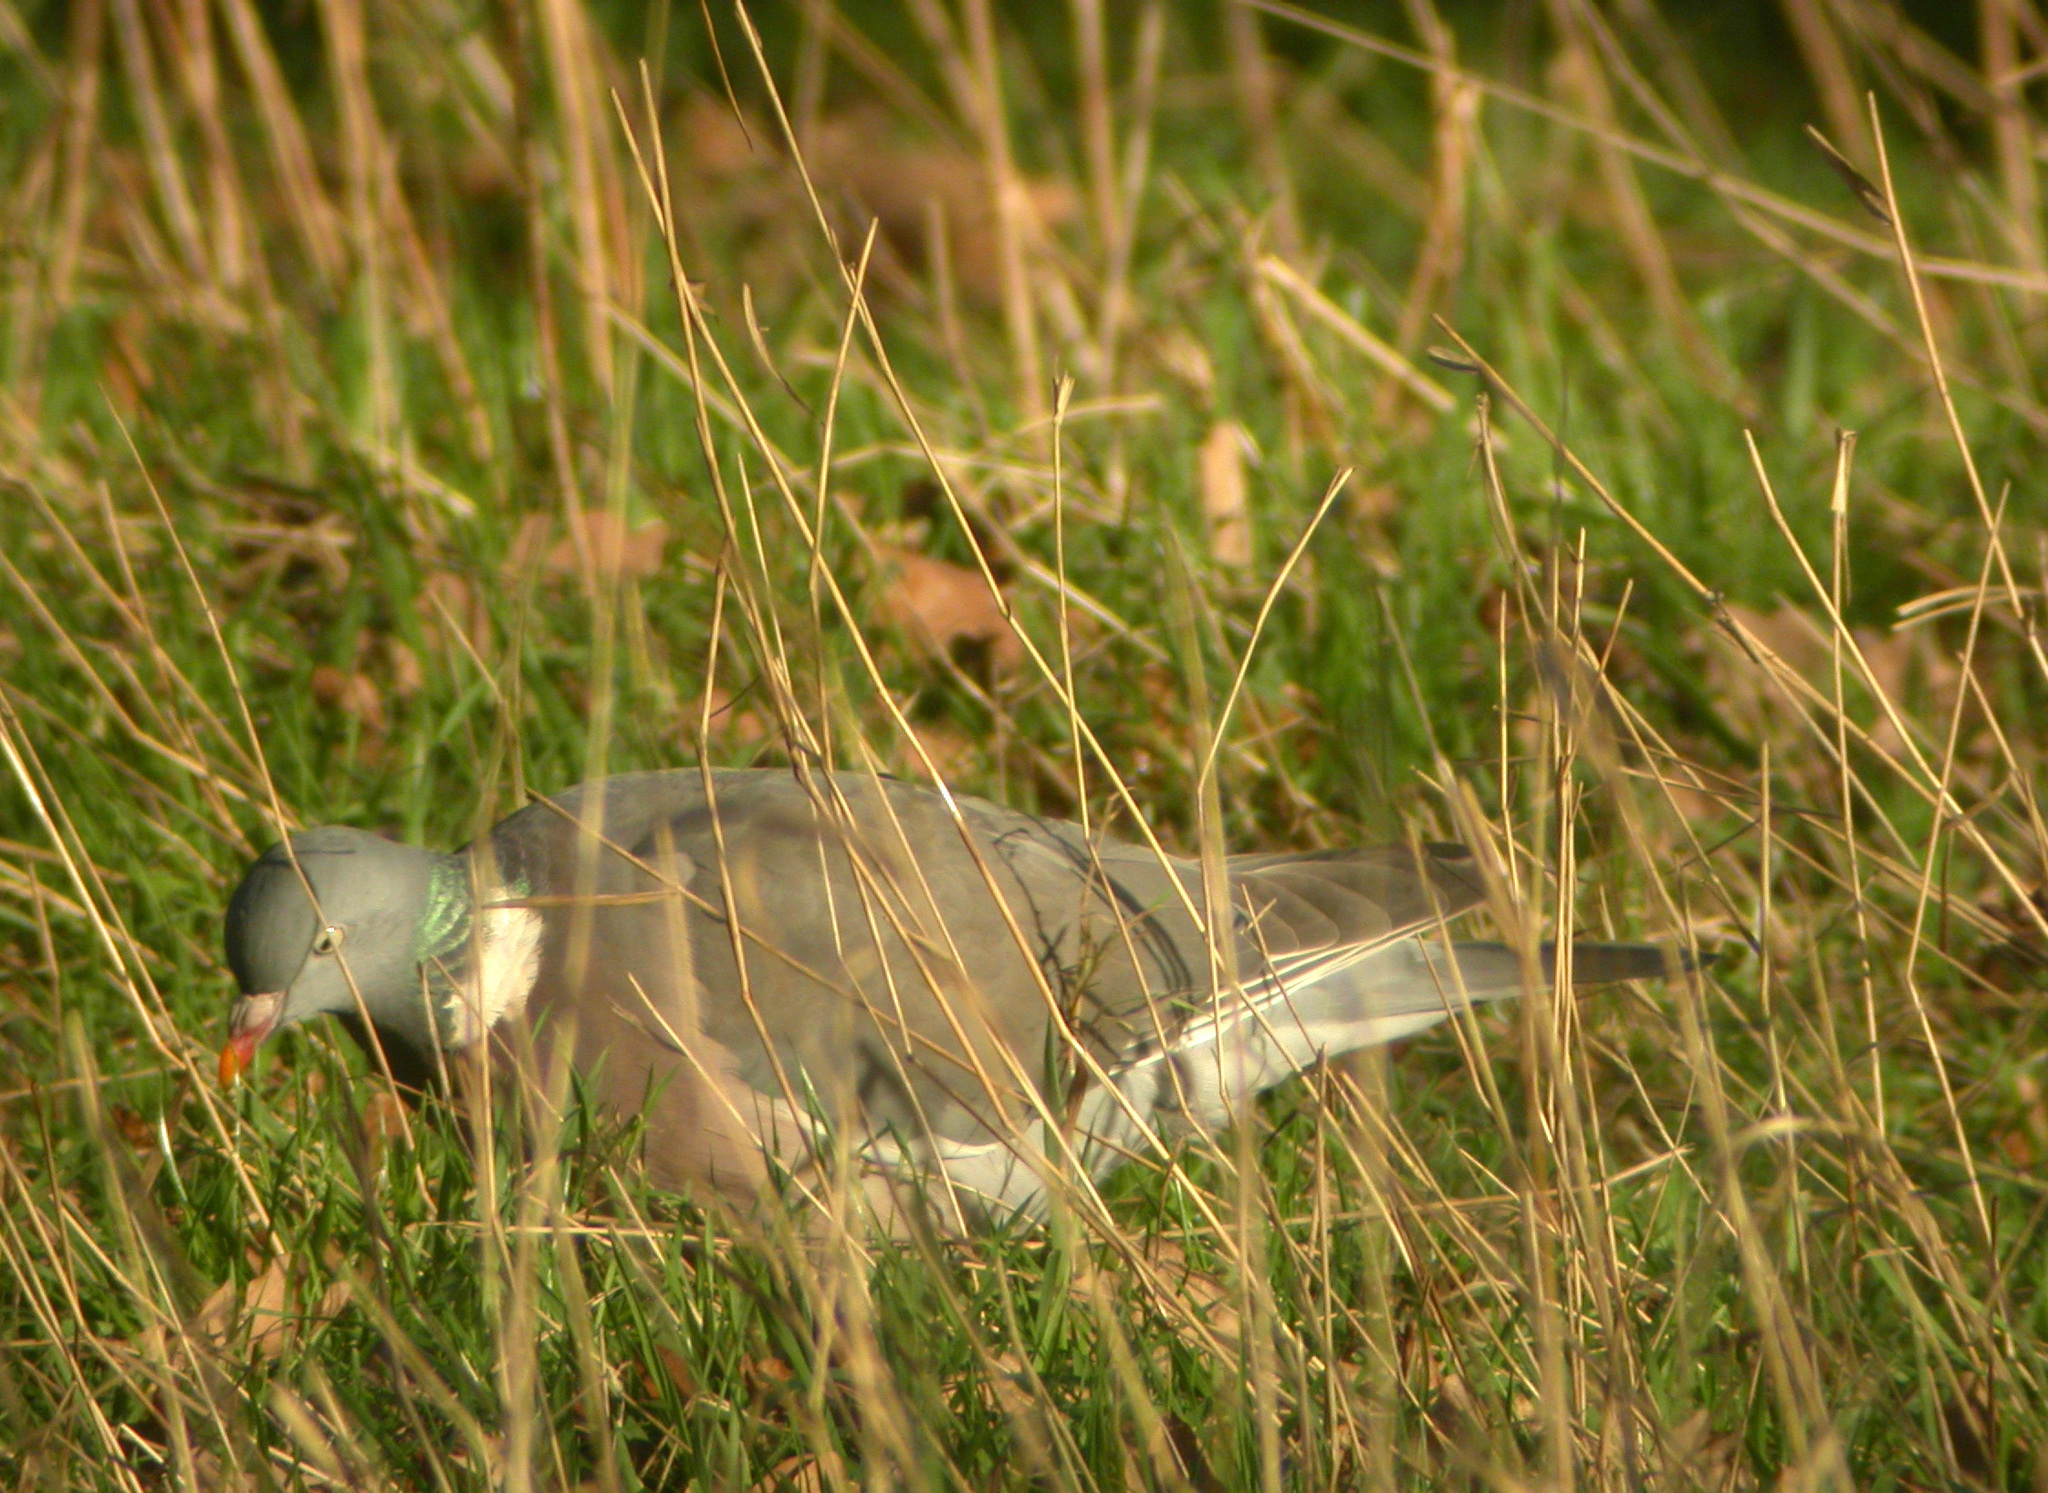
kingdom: Animalia
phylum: Chordata
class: Aves
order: Columbiformes
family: Columbidae
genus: Columba
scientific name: Columba palumbus
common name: Common wood pigeon
